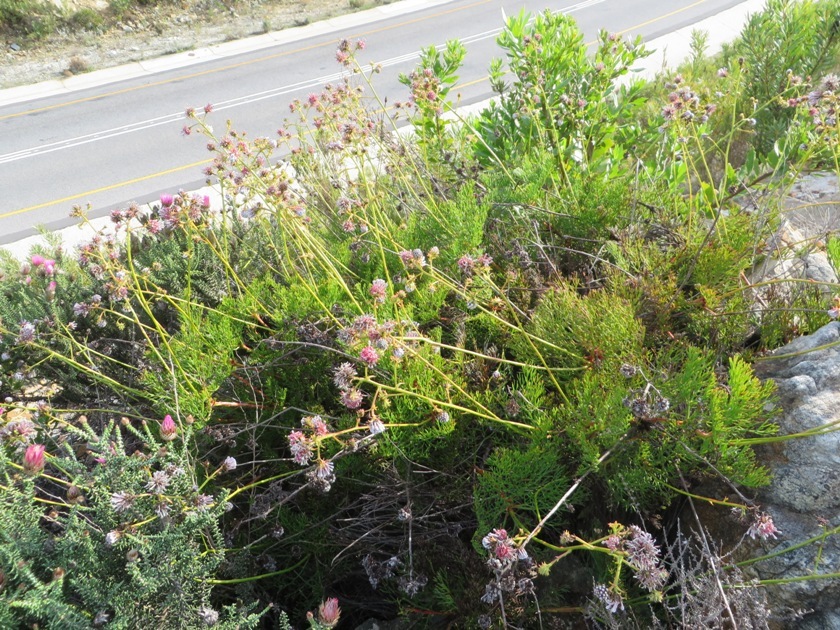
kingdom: Plantae
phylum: Tracheophyta
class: Magnoliopsida
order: Proteales
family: Proteaceae
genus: Serruria
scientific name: Serruria elongata
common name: Long-stalk spiderhead
